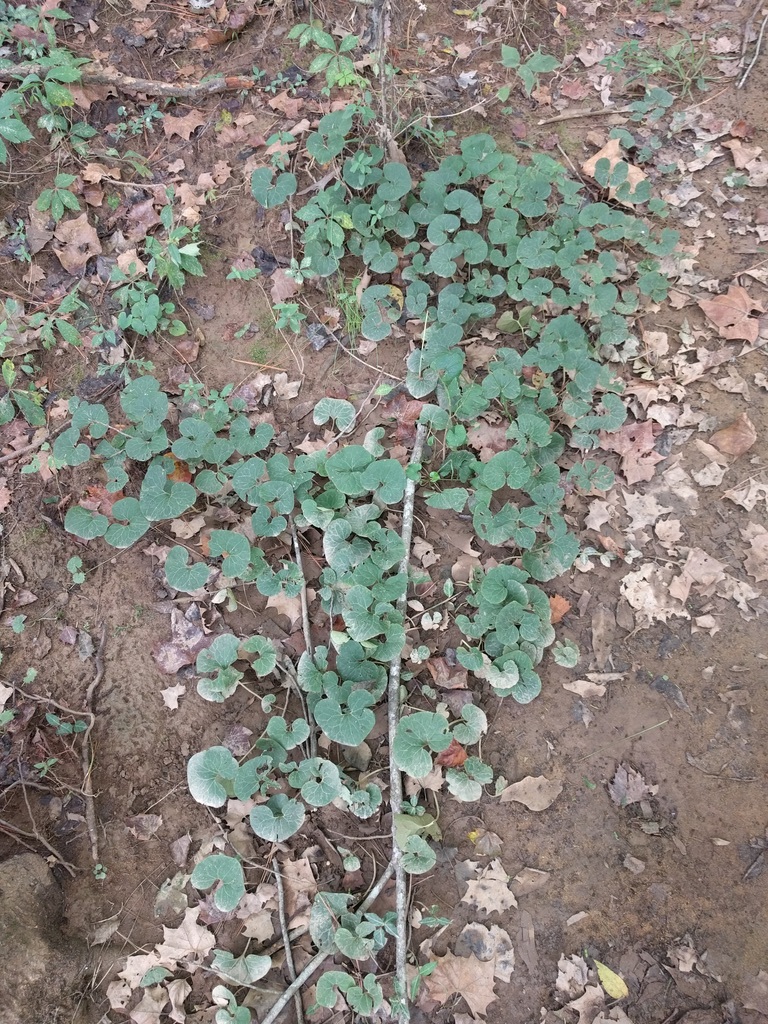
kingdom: Plantae
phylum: Tracheophyta
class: Magnoliopsida
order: Piperales
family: Aristolochiaceae
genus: Asarum
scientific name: Asarum canadense
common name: Wild ginger
